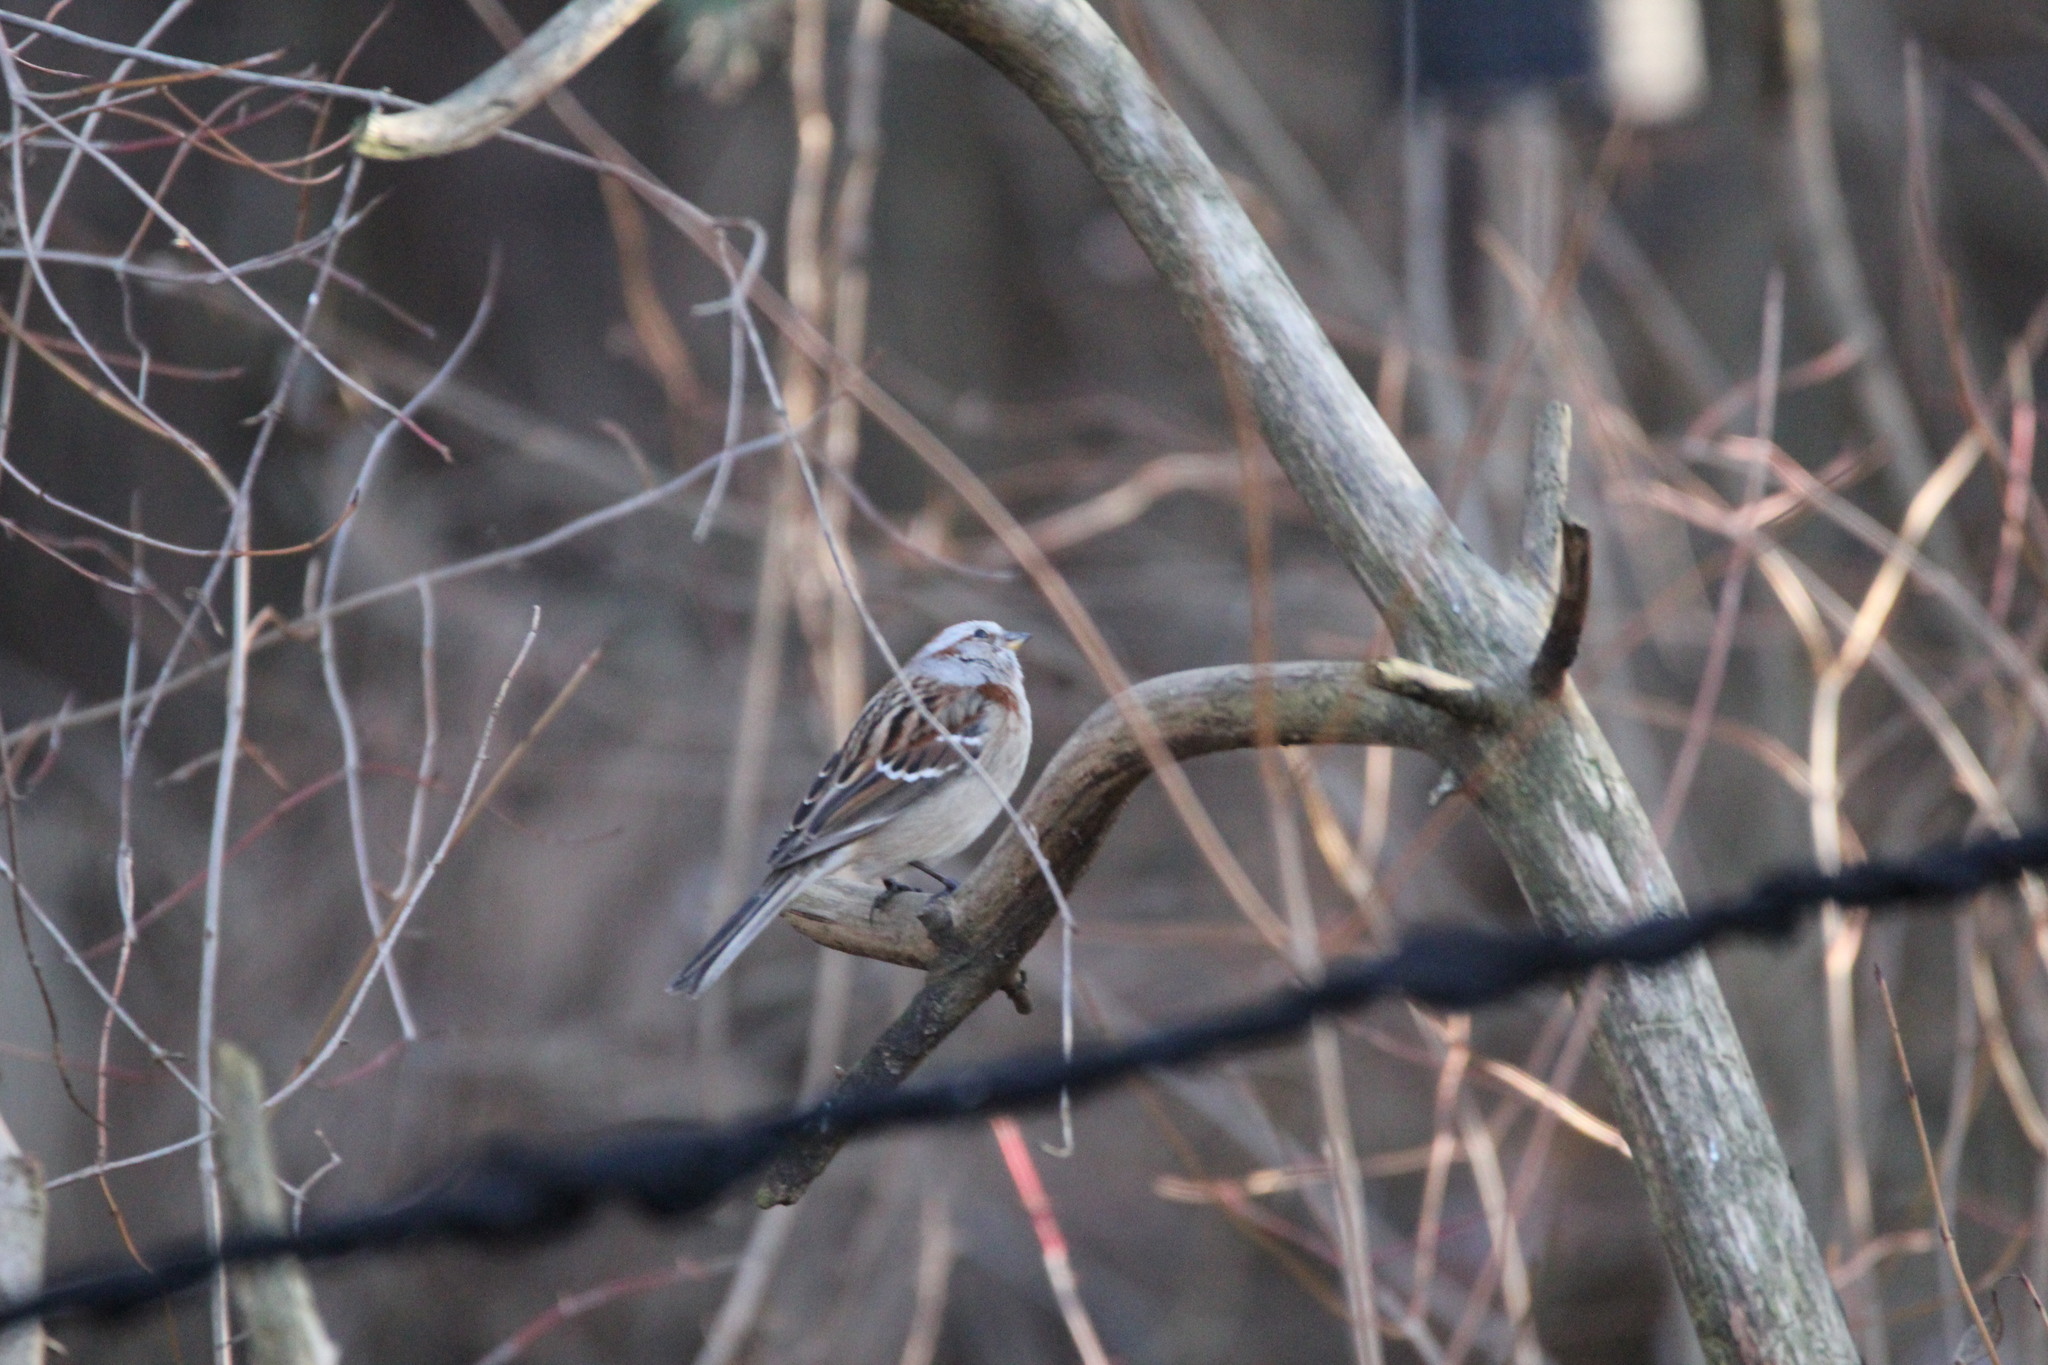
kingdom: Animalia
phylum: Chordata
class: Aves
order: Passeriformes
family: Passerellidae
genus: Spizelloides
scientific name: Spizelloides arborea
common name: American tree sparrow
